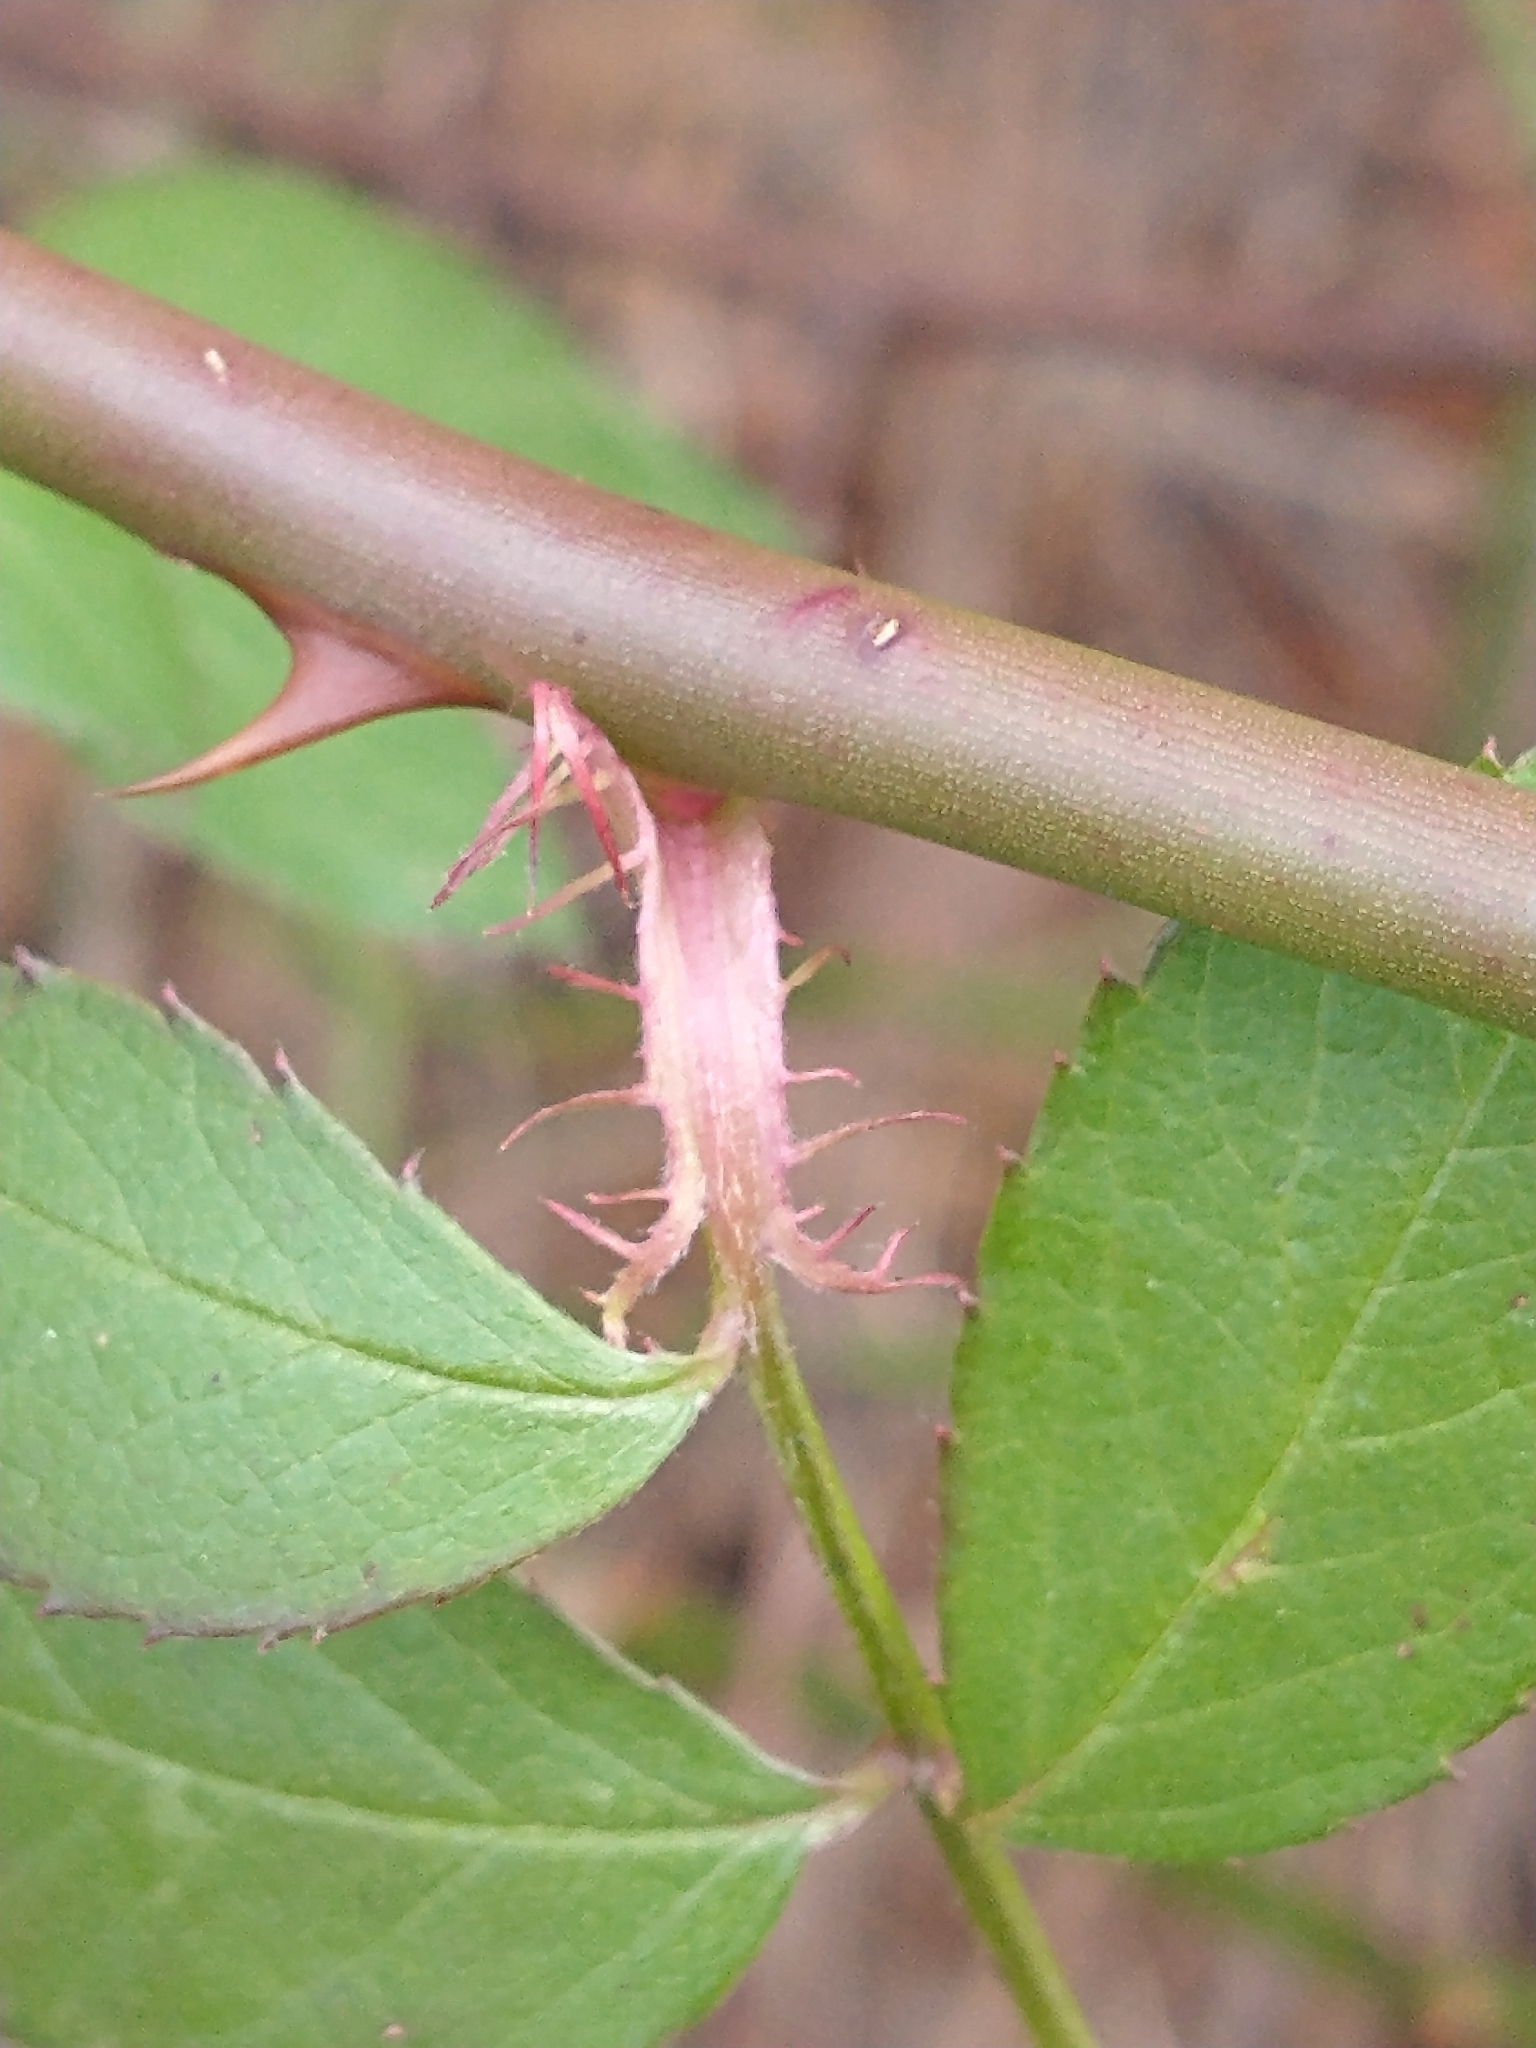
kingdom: Plantae
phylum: Tracheophyta
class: Magnoliopsida
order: Rosales
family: Rosaceae
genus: Rosa
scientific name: Rosa multiflora
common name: Multiflora rose
